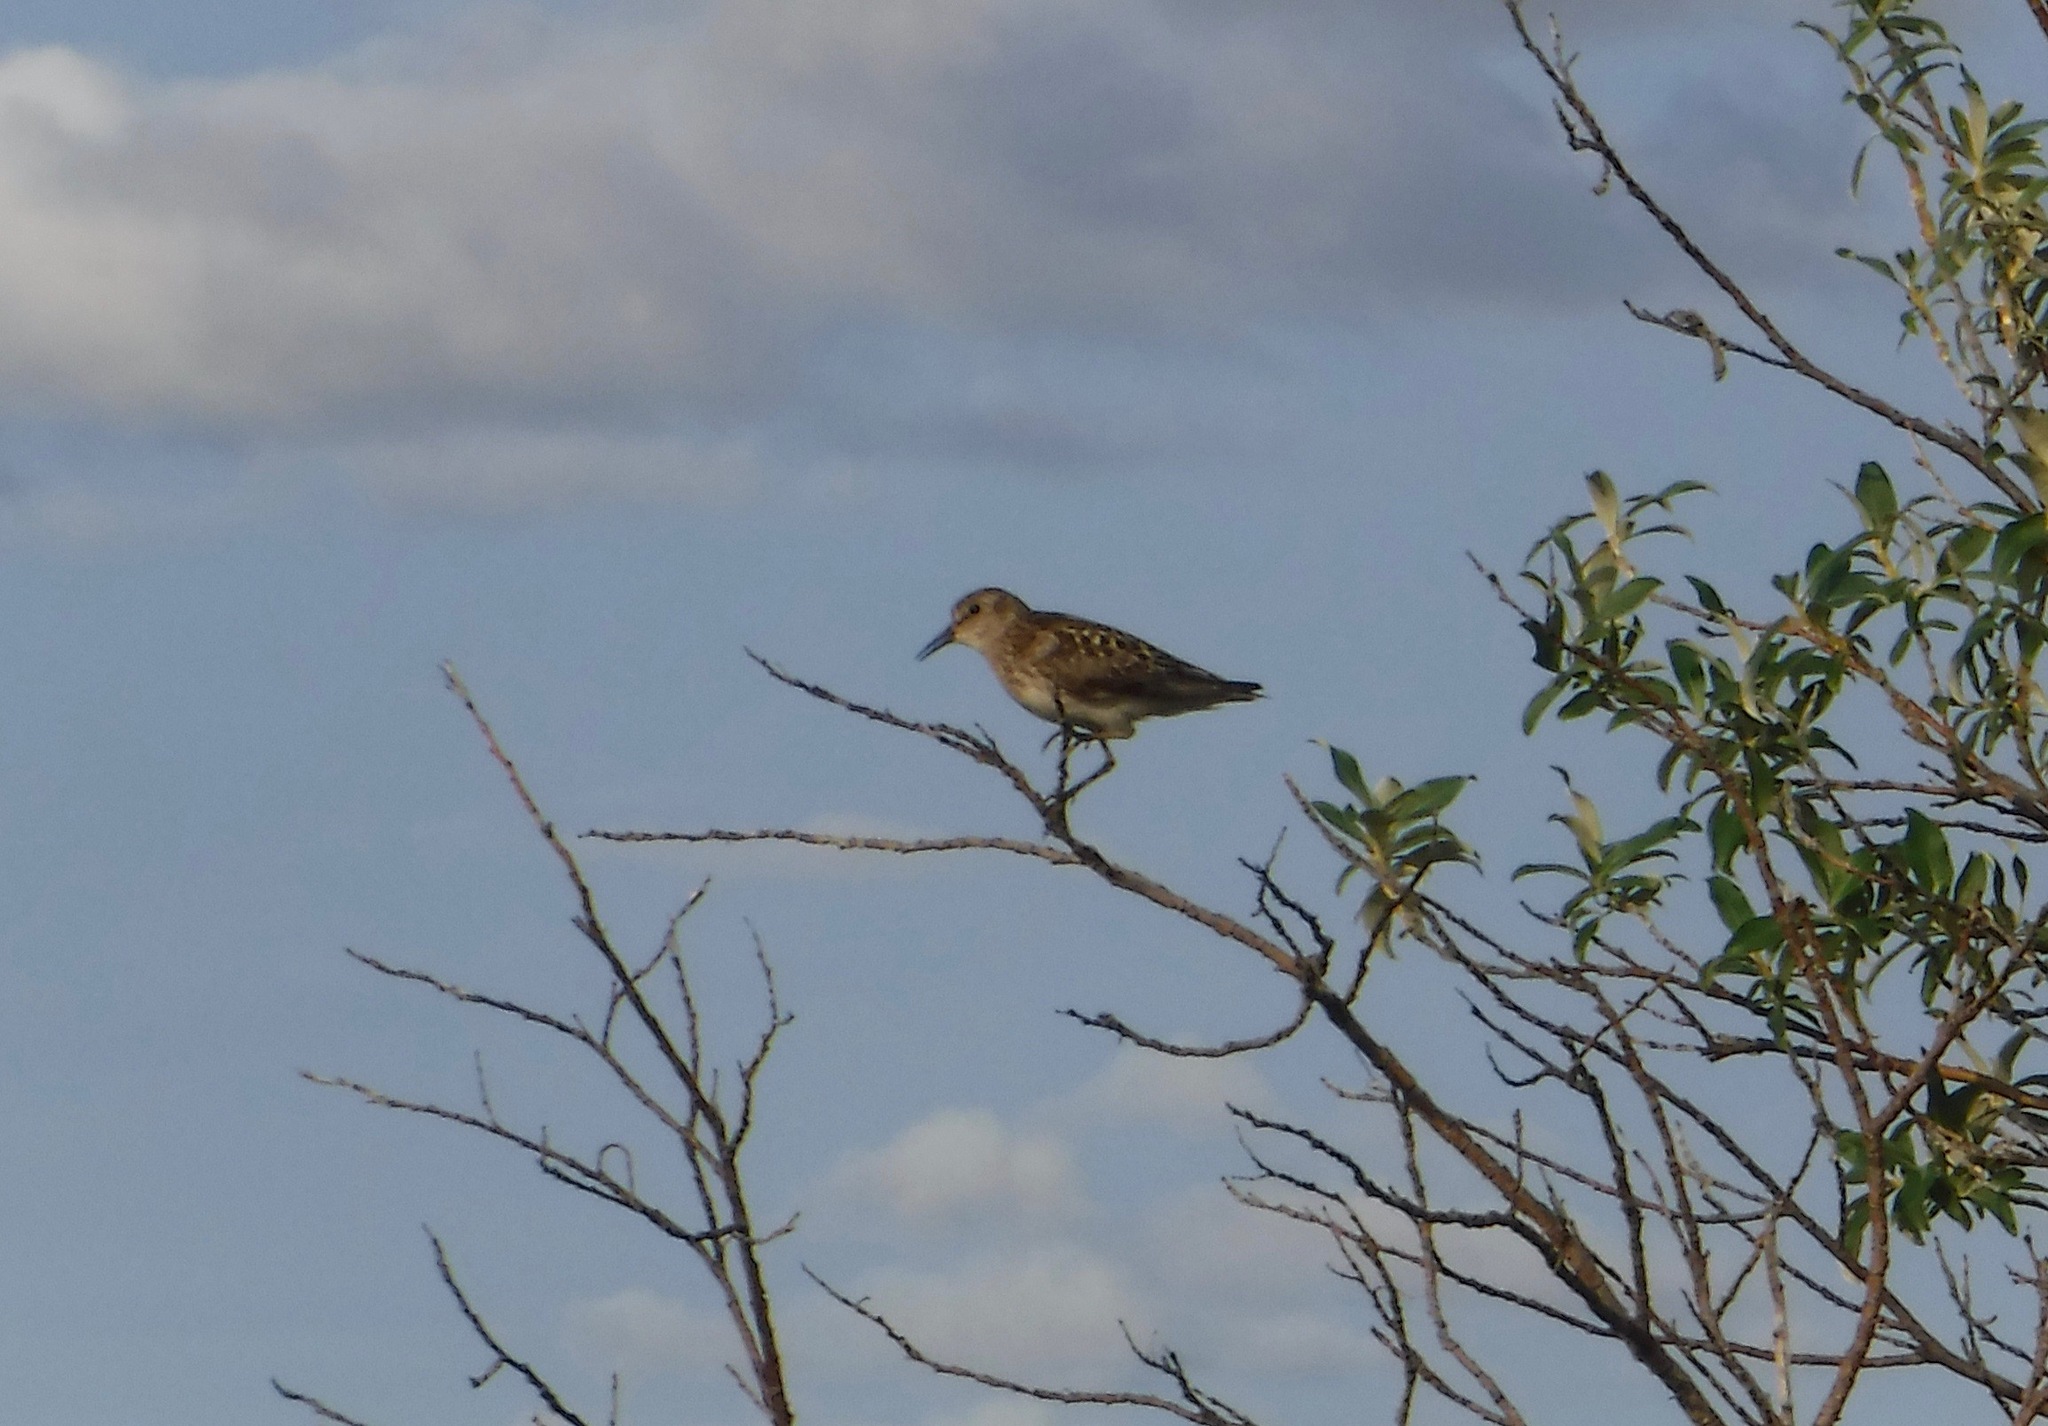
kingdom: Animalia
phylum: Chordata
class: Aves
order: Charadriiformes
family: Scolopacidae
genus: Calidris
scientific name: Calidris minutilla
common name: Least sandpiper
